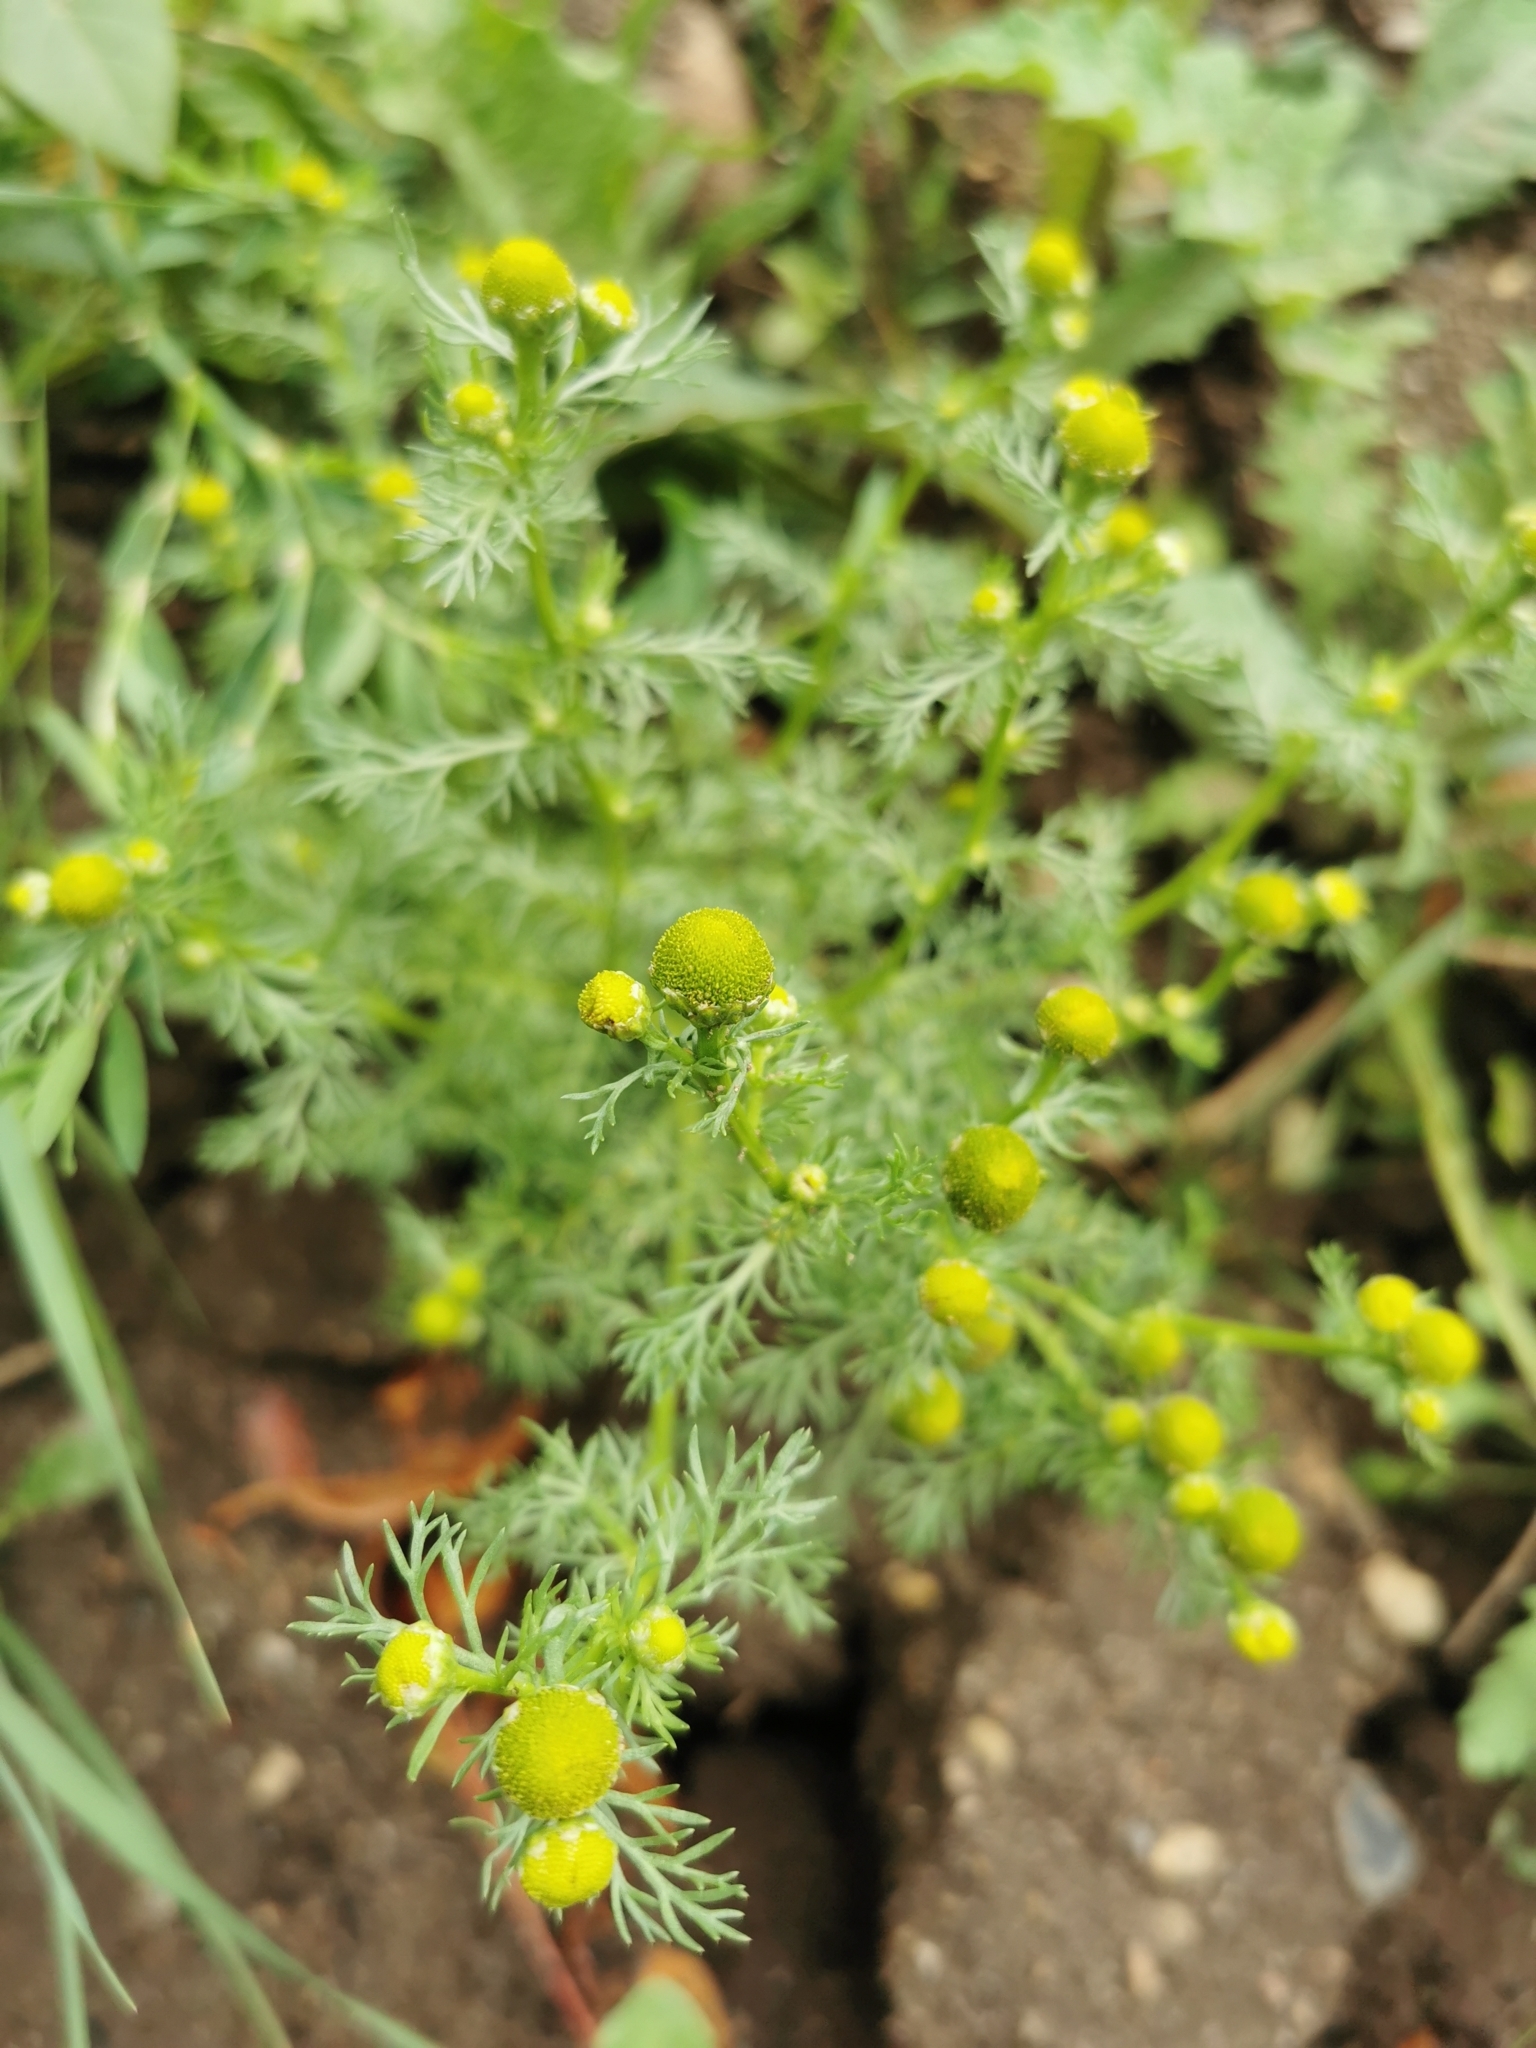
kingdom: Plantae
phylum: Tracheophyta
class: Magnoliopsida
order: Asterales
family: Asteraceae
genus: Matricaria
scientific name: Matricaria discoidea
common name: Disc mayweed
